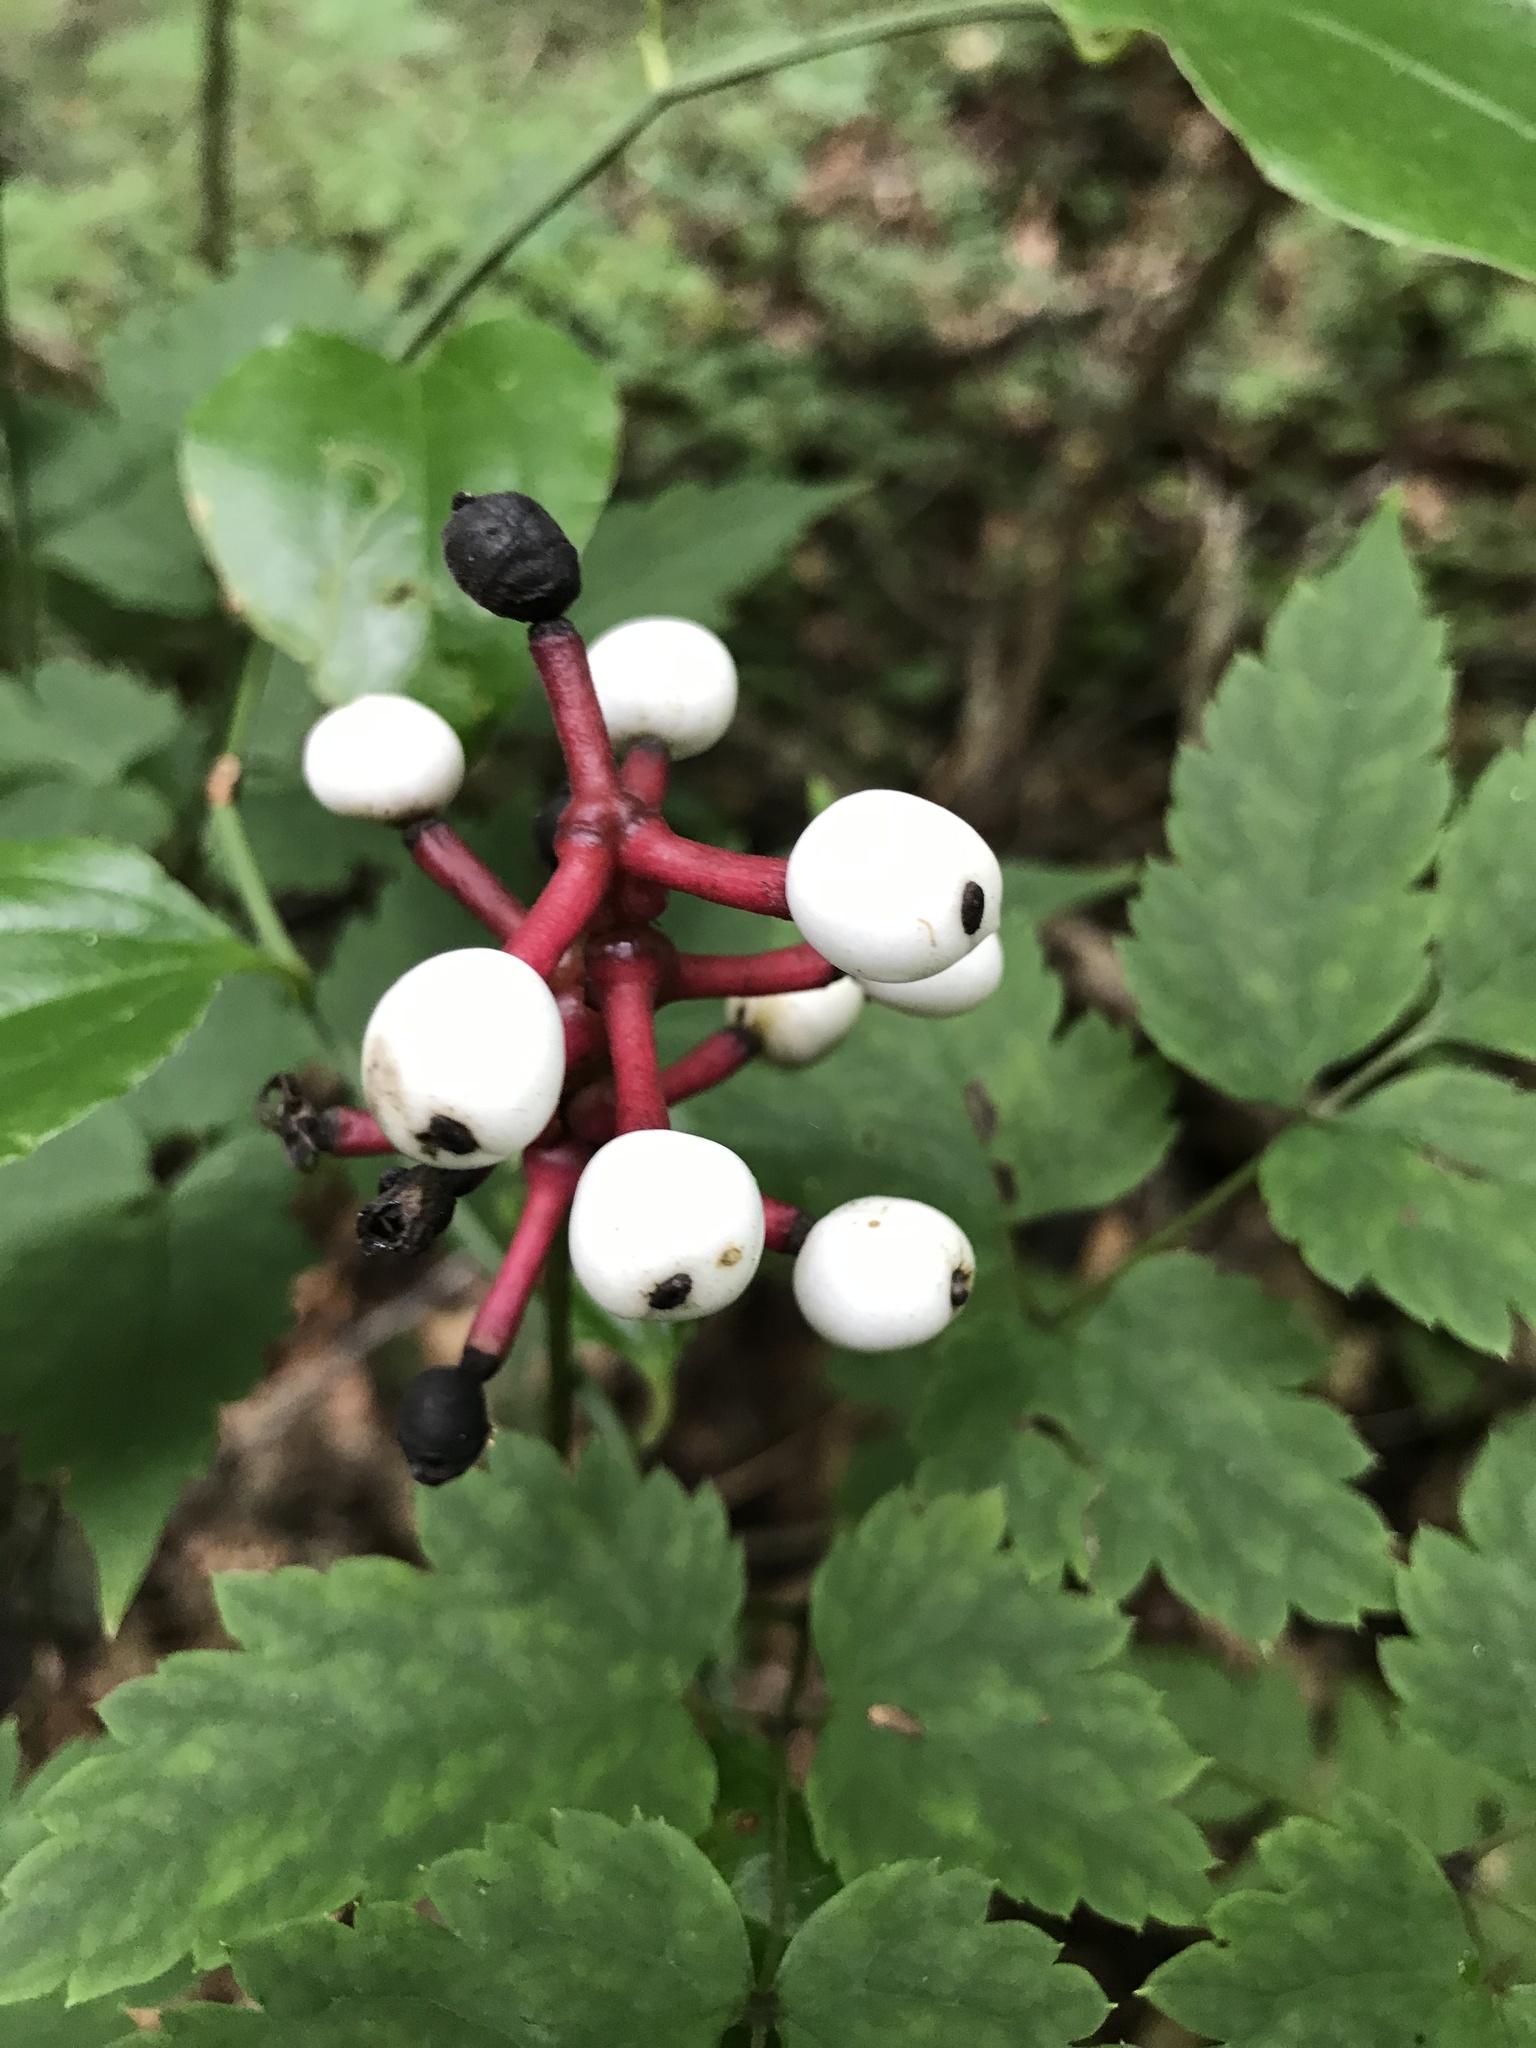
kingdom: Plantae
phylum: Tracheophyta
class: Magnoliopsida
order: Ranunculales
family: Ranunculaceae
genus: Actaea
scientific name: Actaea pachypoda
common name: Doll's-eyes
